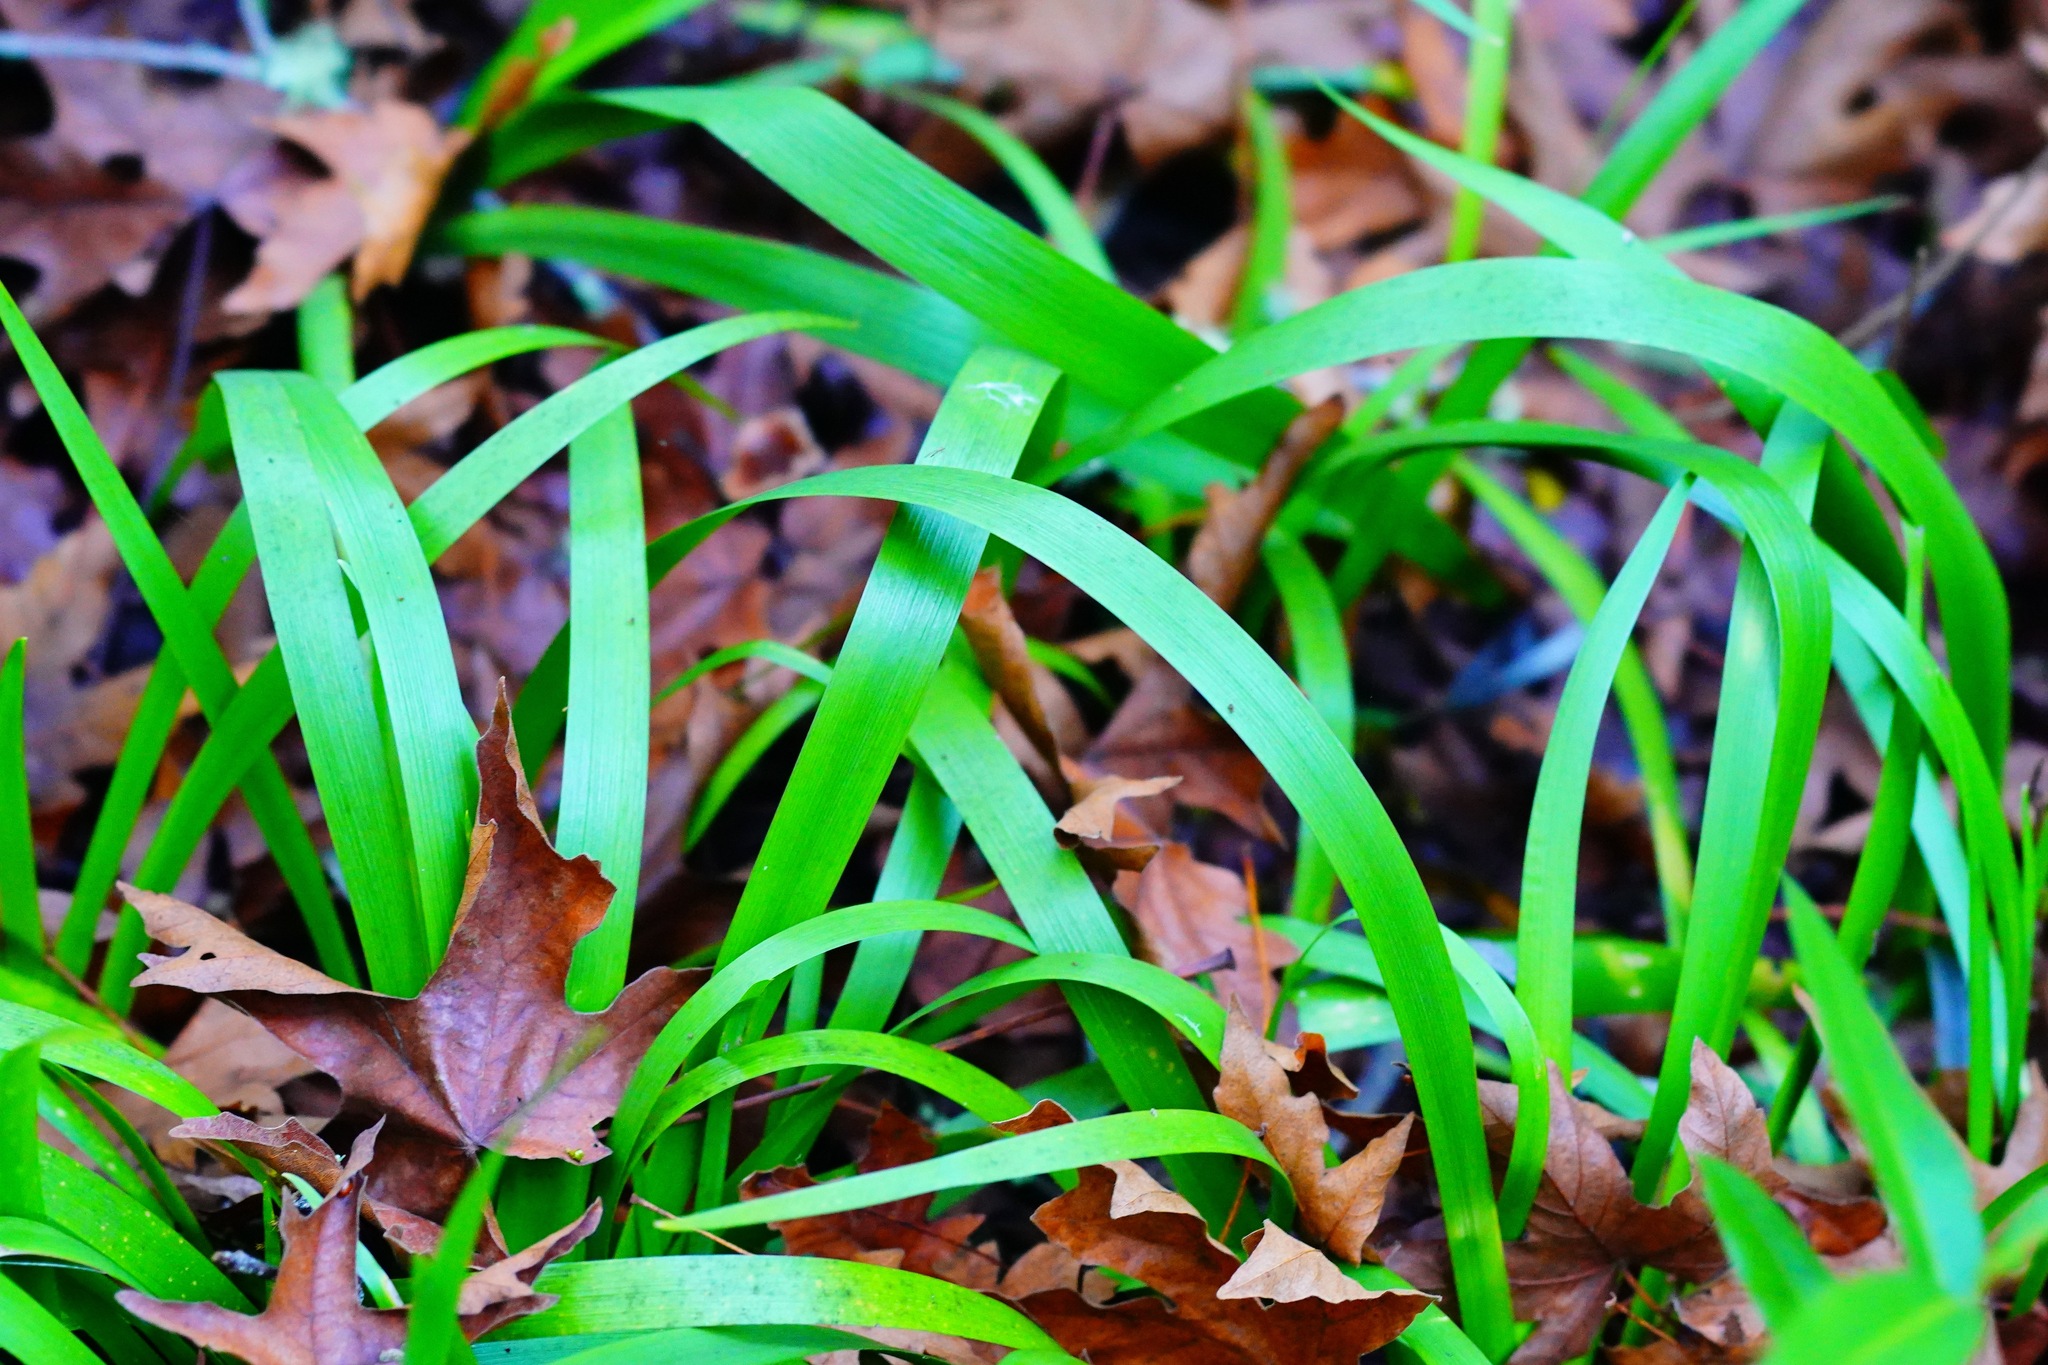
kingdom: Plantae
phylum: Tracheophyta
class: Liliopsida
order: Asparagales
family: Iridaceae
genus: Iris
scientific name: Iris douglasiana
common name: Marin iris
